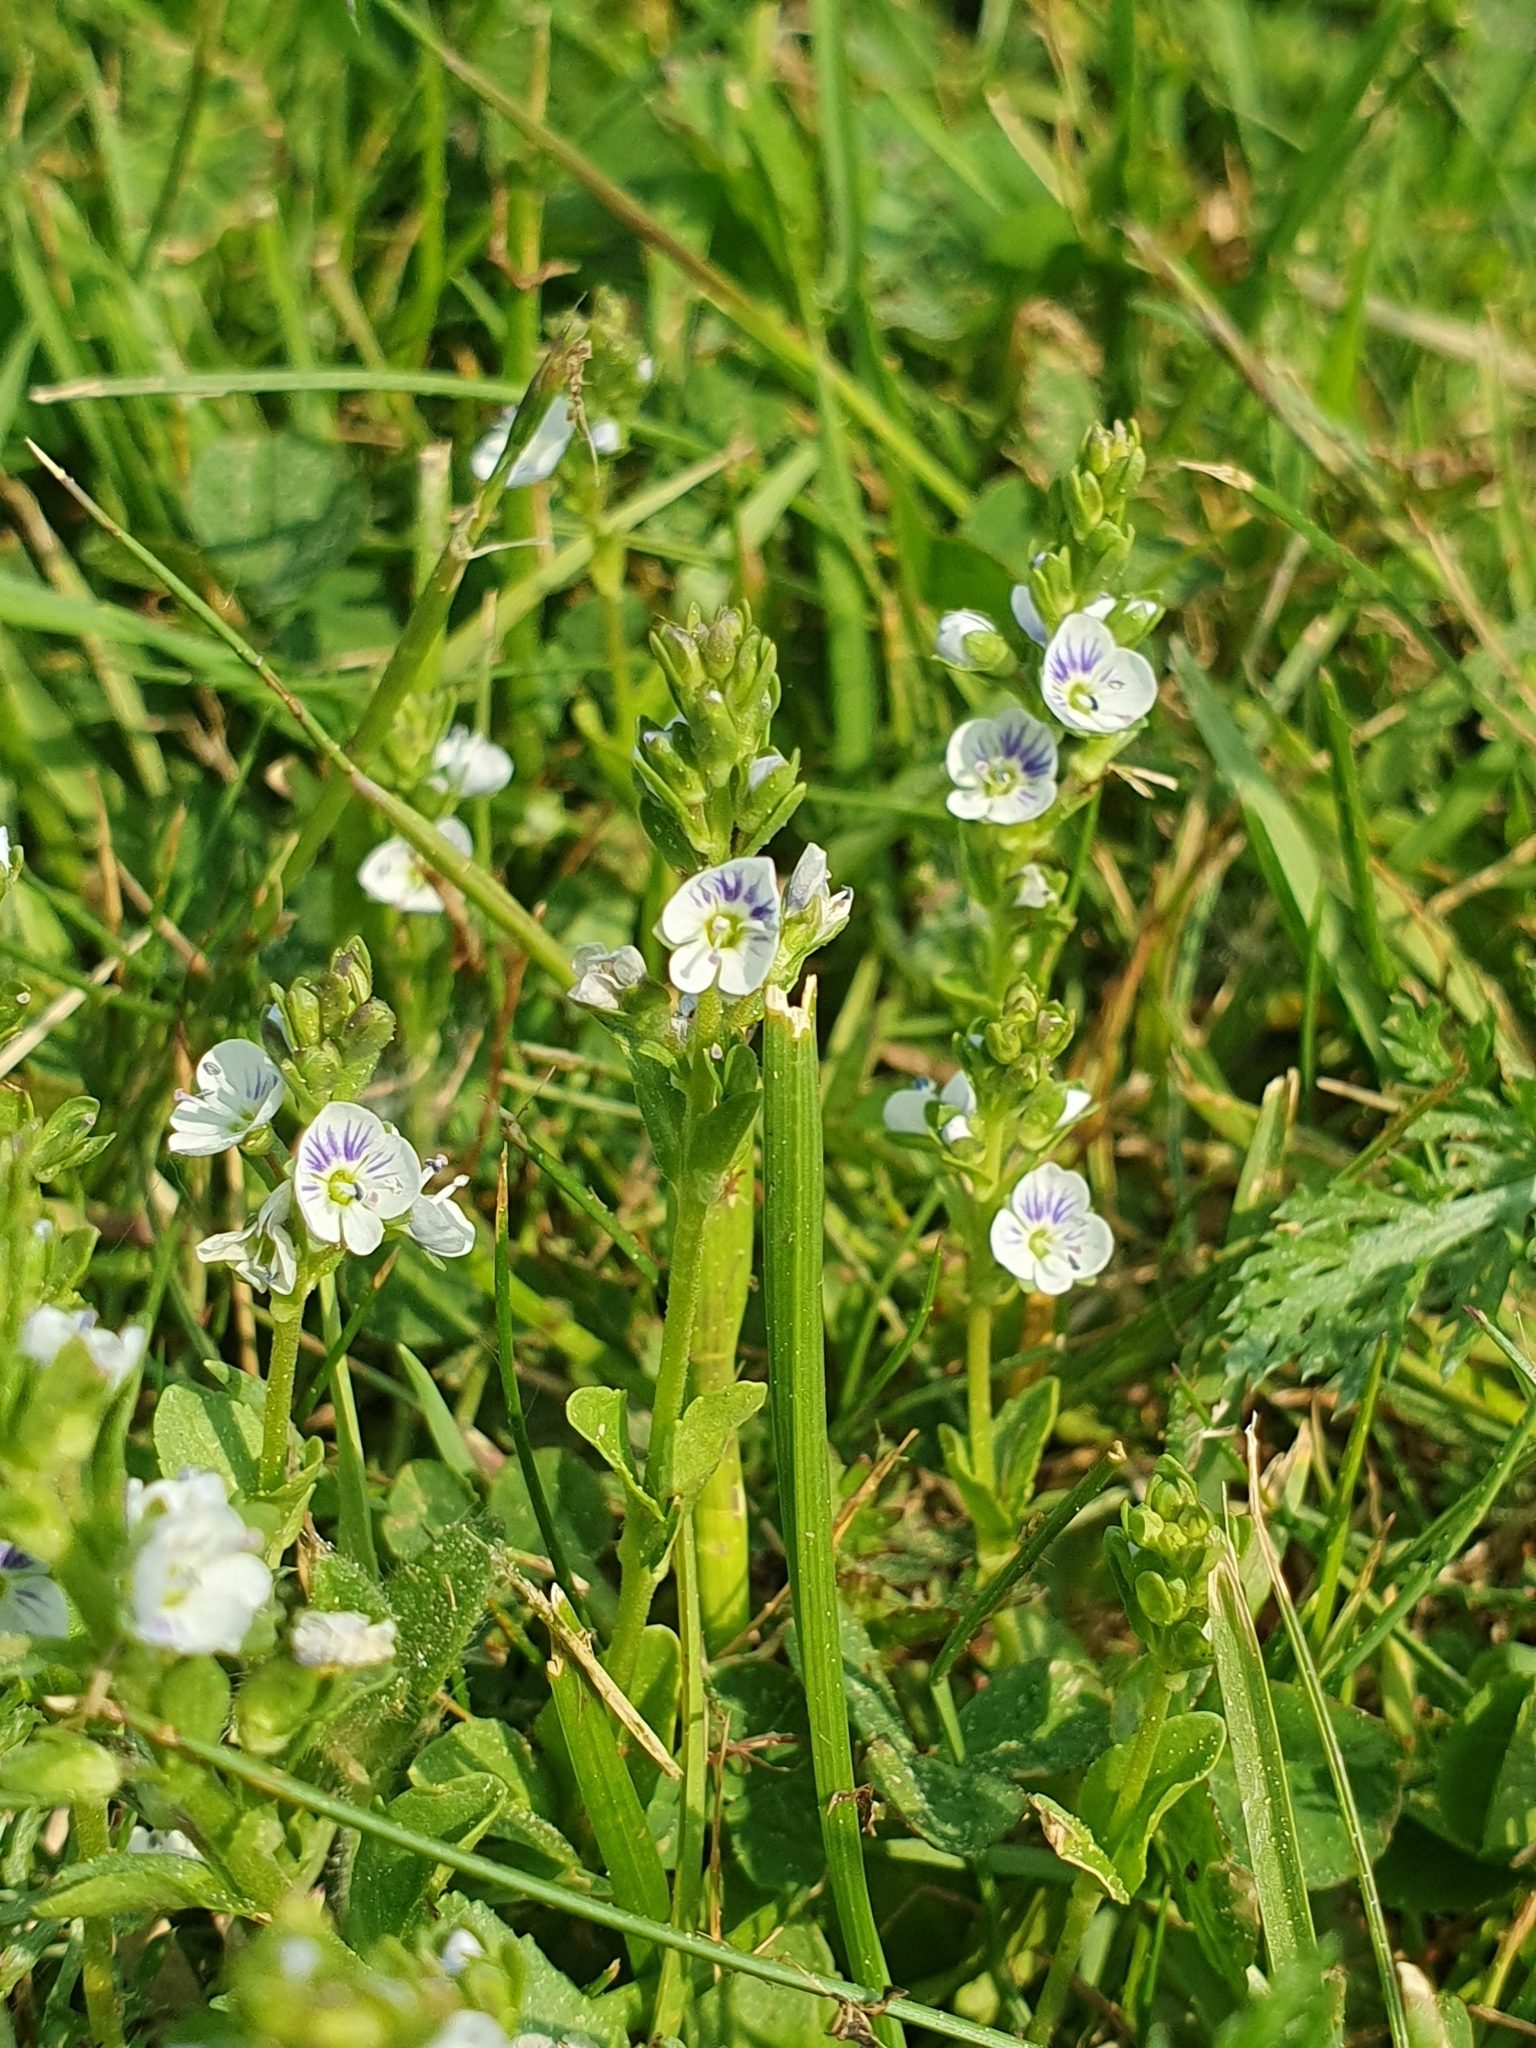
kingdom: Plantae
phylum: Tracheophyta
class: Magnoliopsida
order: Lamiales
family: Plantaginaceae
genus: Veronica
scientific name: Veronica serpyllifolia
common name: Thyme-leaved speedwell
